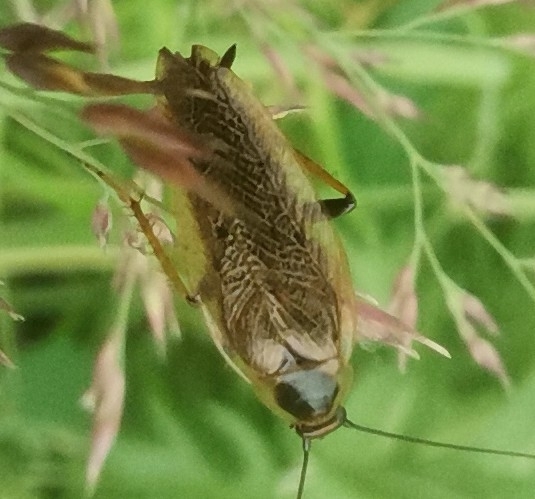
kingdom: Animalia
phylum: Arthropoda
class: Insecta
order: Blattodea
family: Ectobiidae
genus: Ectobius
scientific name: Ectobius lapponicus
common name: Dusky cockroach
